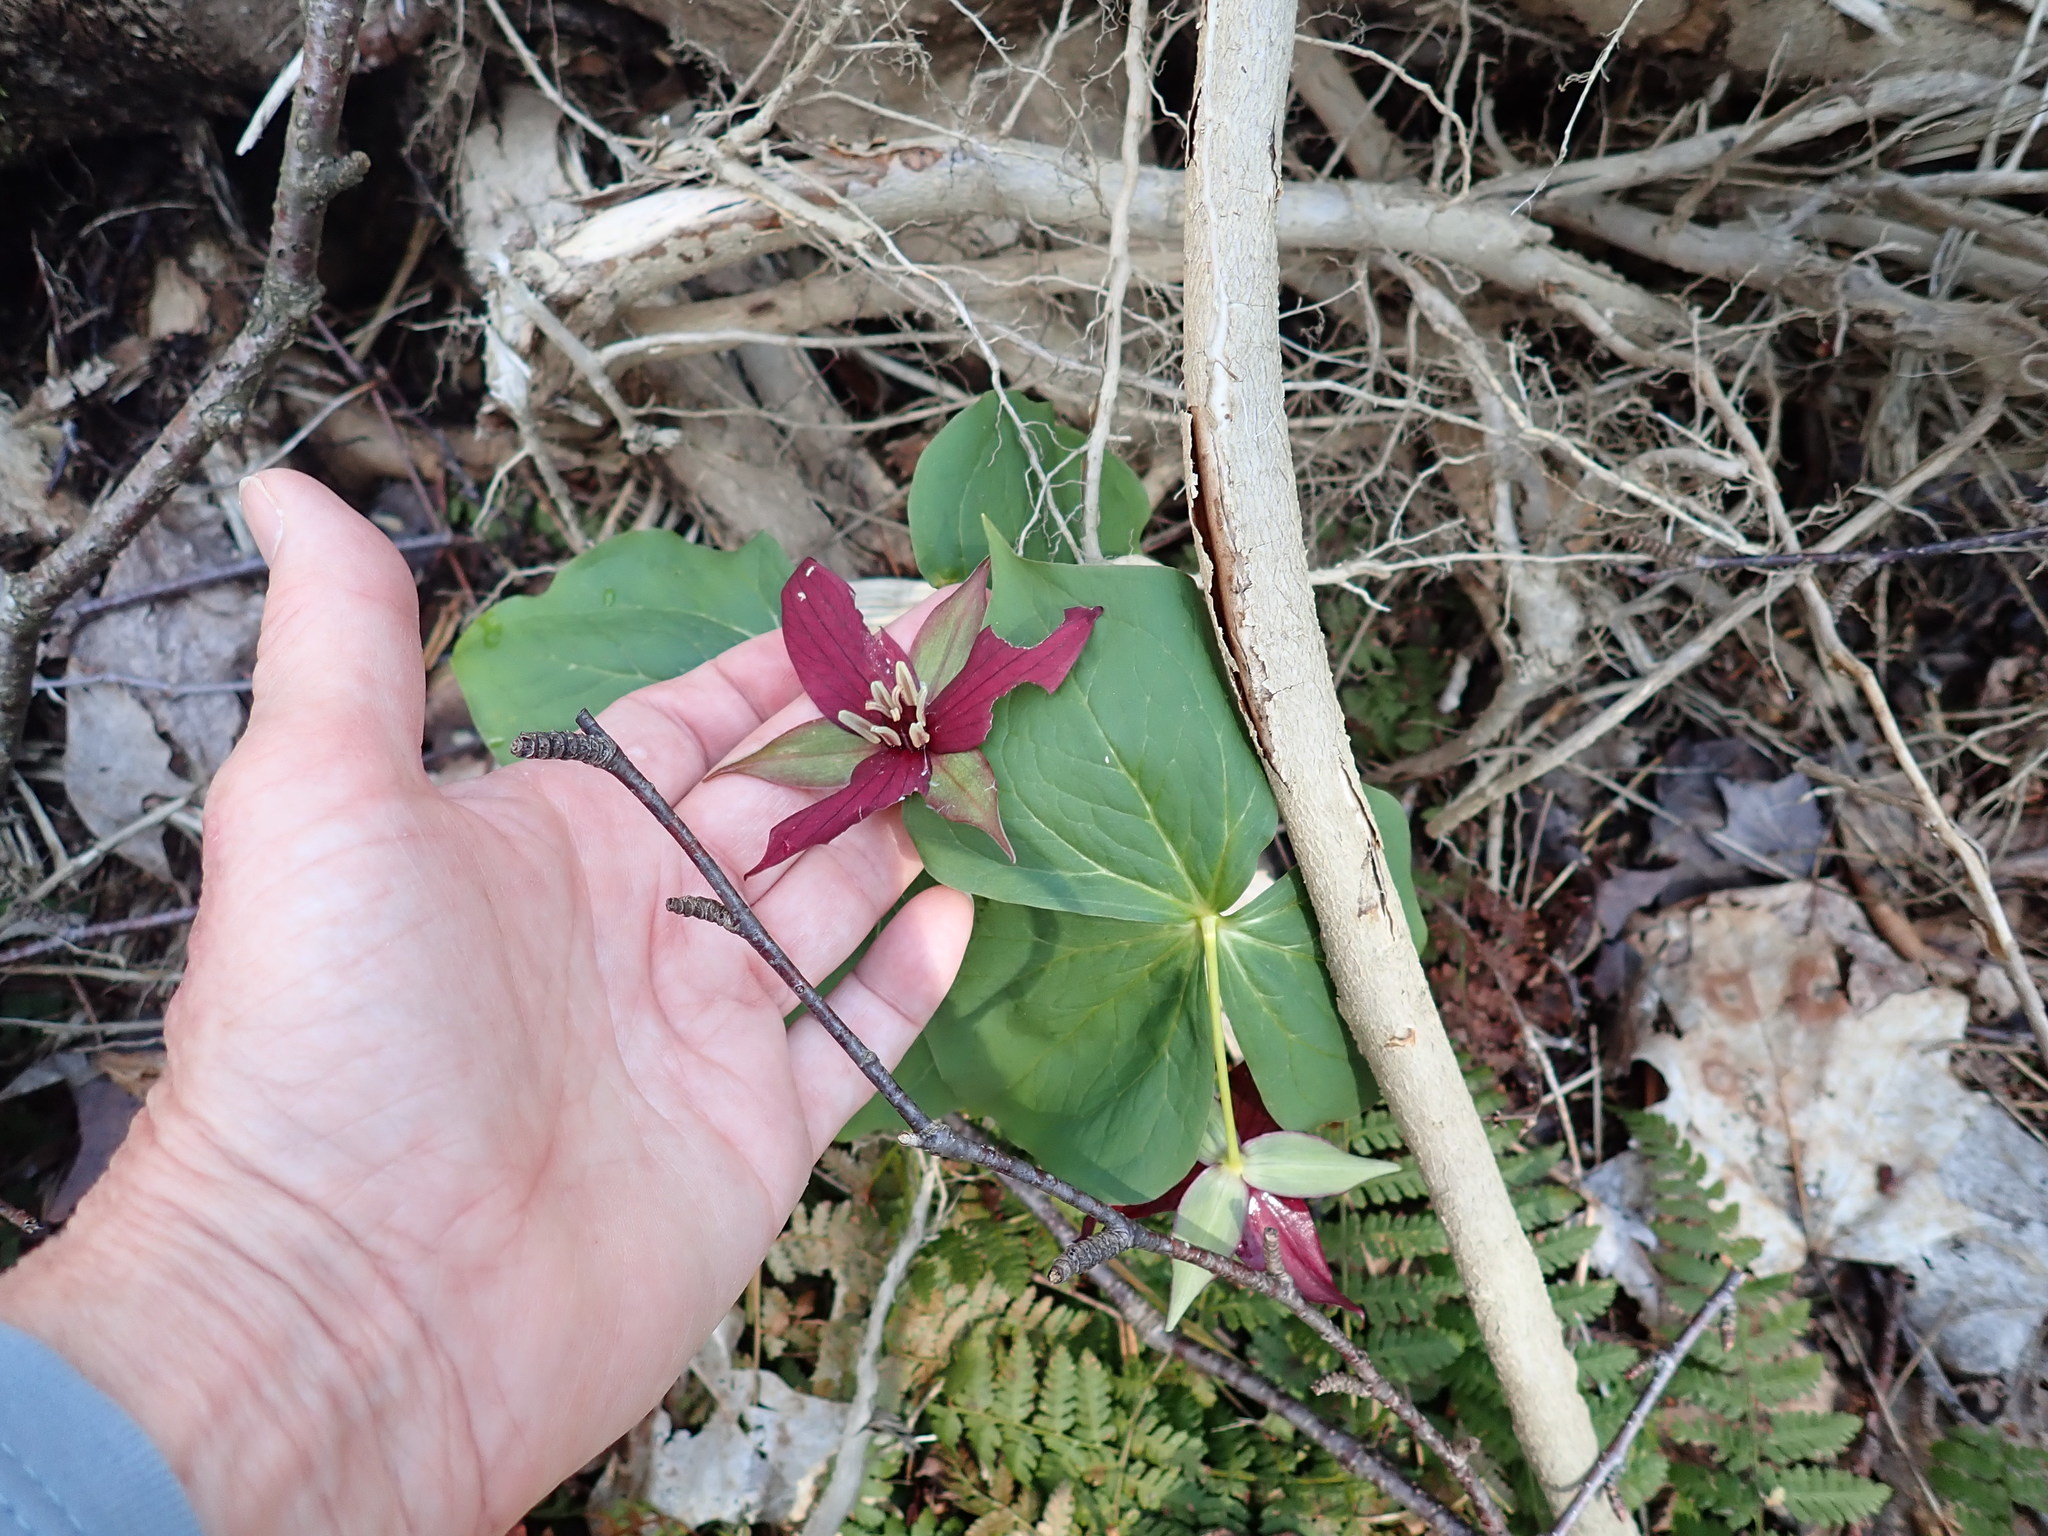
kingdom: Plantae
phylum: Tracheophyta
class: Liliopsida
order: Liliales
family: Melanthiaceae
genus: Trillium
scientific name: Trillium erectum
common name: Purple trillium
